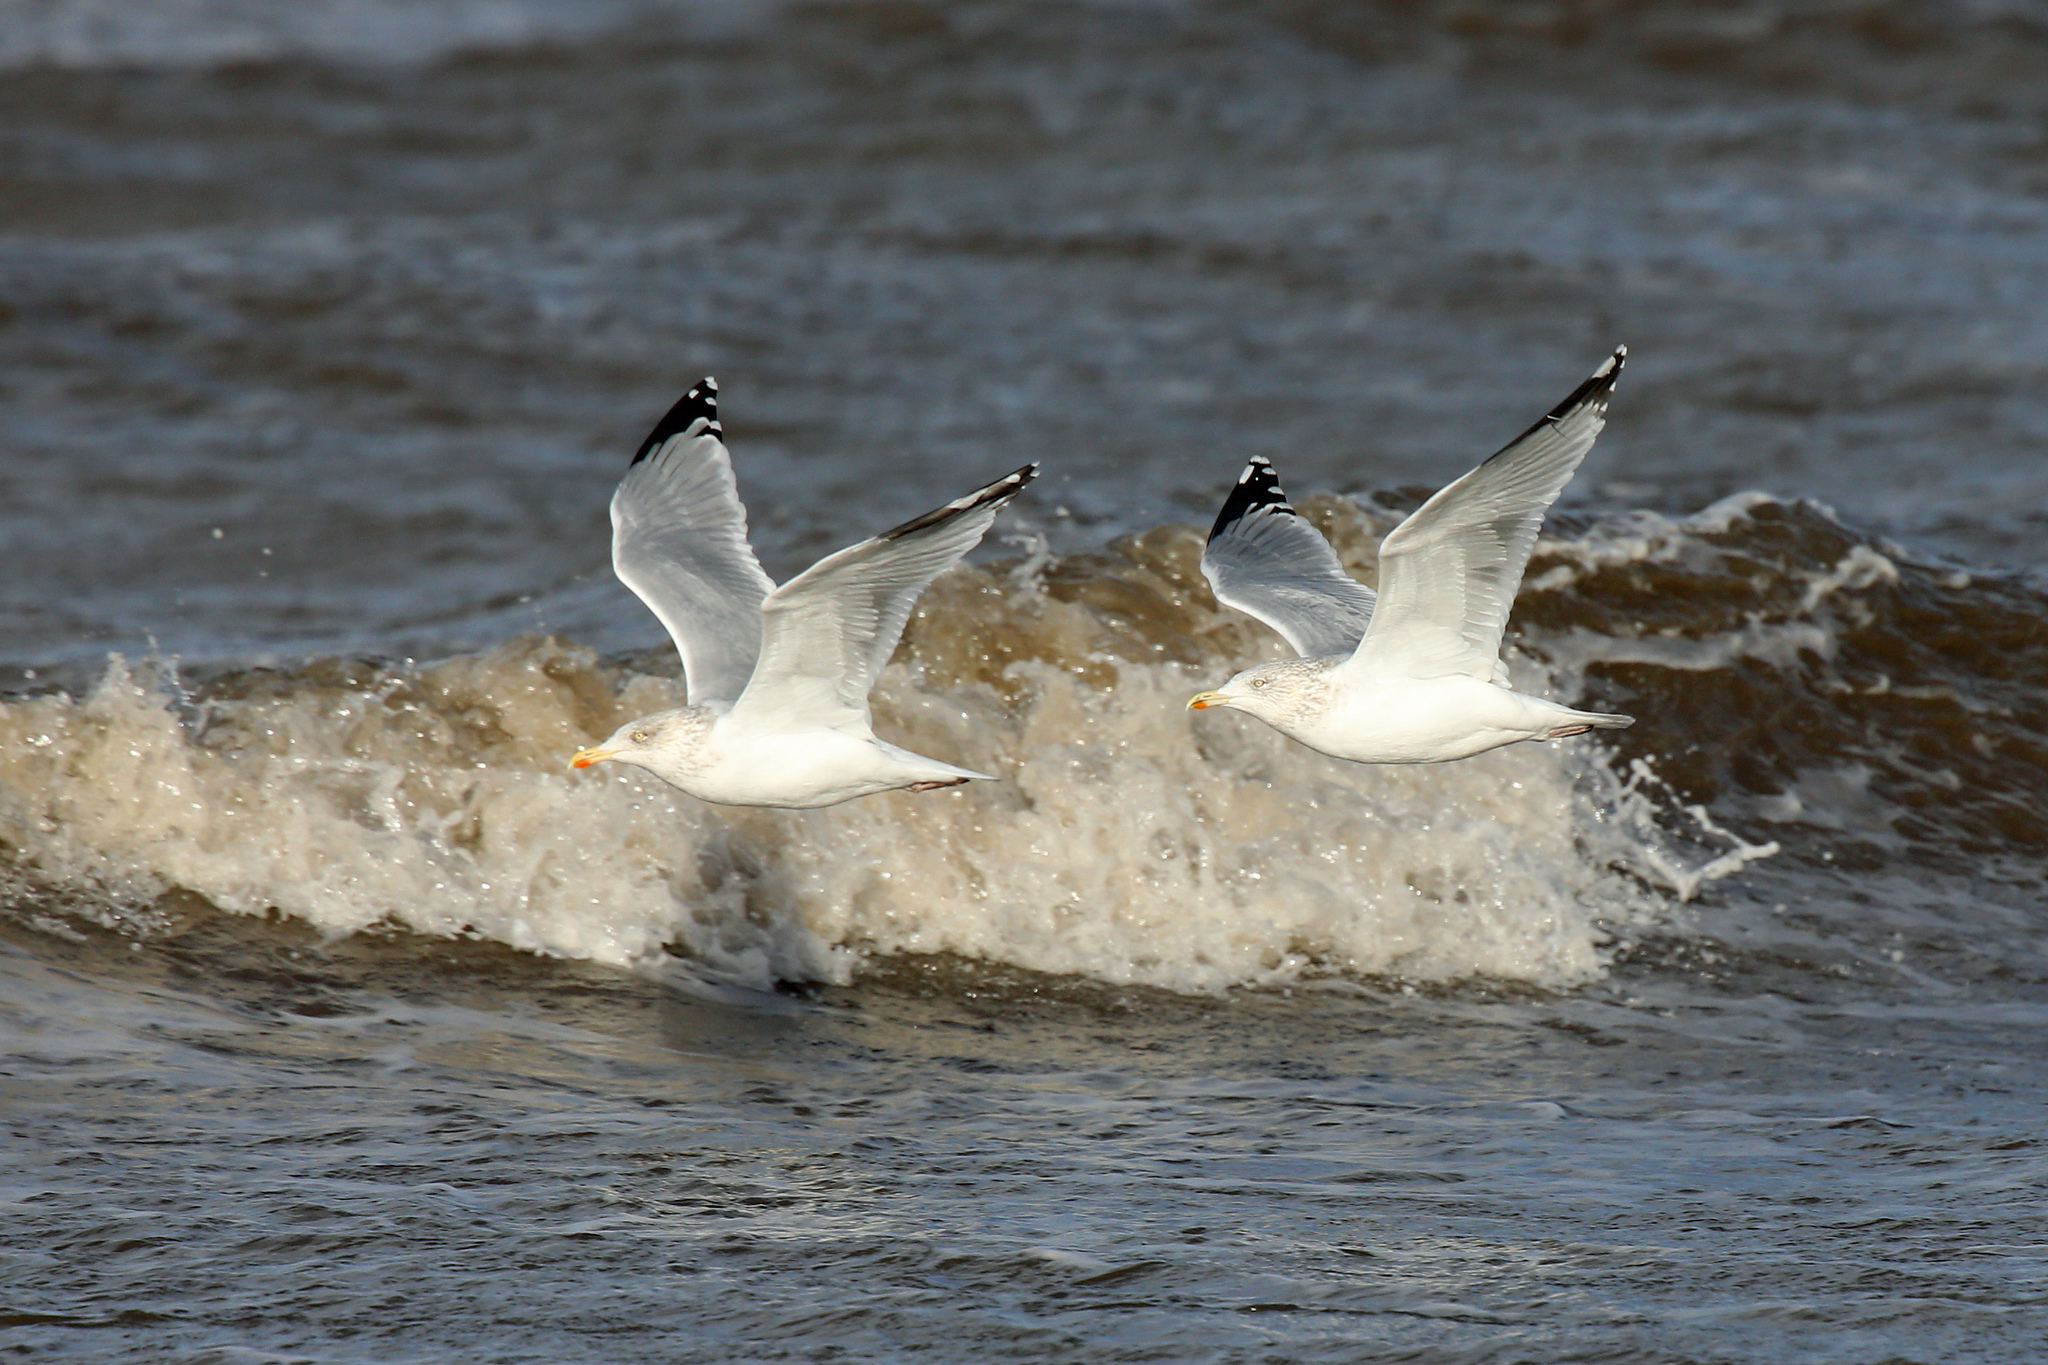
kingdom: Animalia
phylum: Chordata
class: Aves
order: Charadriiformes
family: Laridae
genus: Larus
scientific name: Larus argentatus
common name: Herring gull
